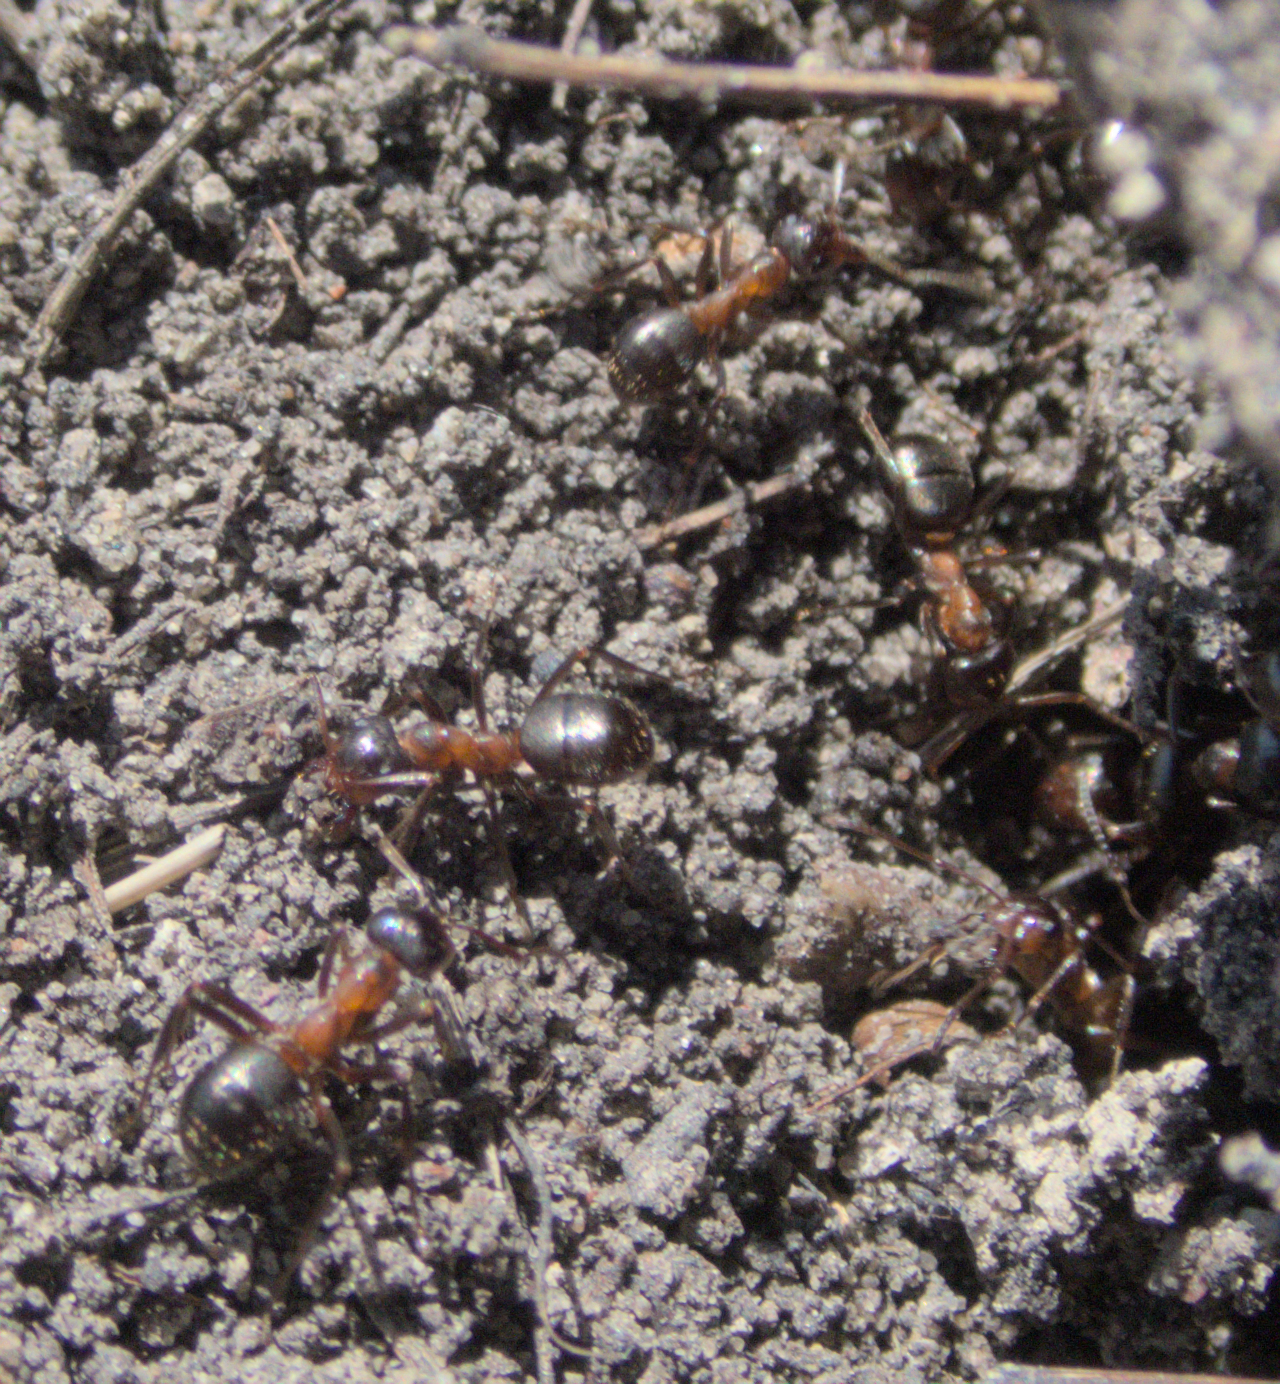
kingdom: Animalia
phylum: Arthropoda
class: Insecta
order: Hymenoptera
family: Formicidae
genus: Formica
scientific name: Formica ulkei
